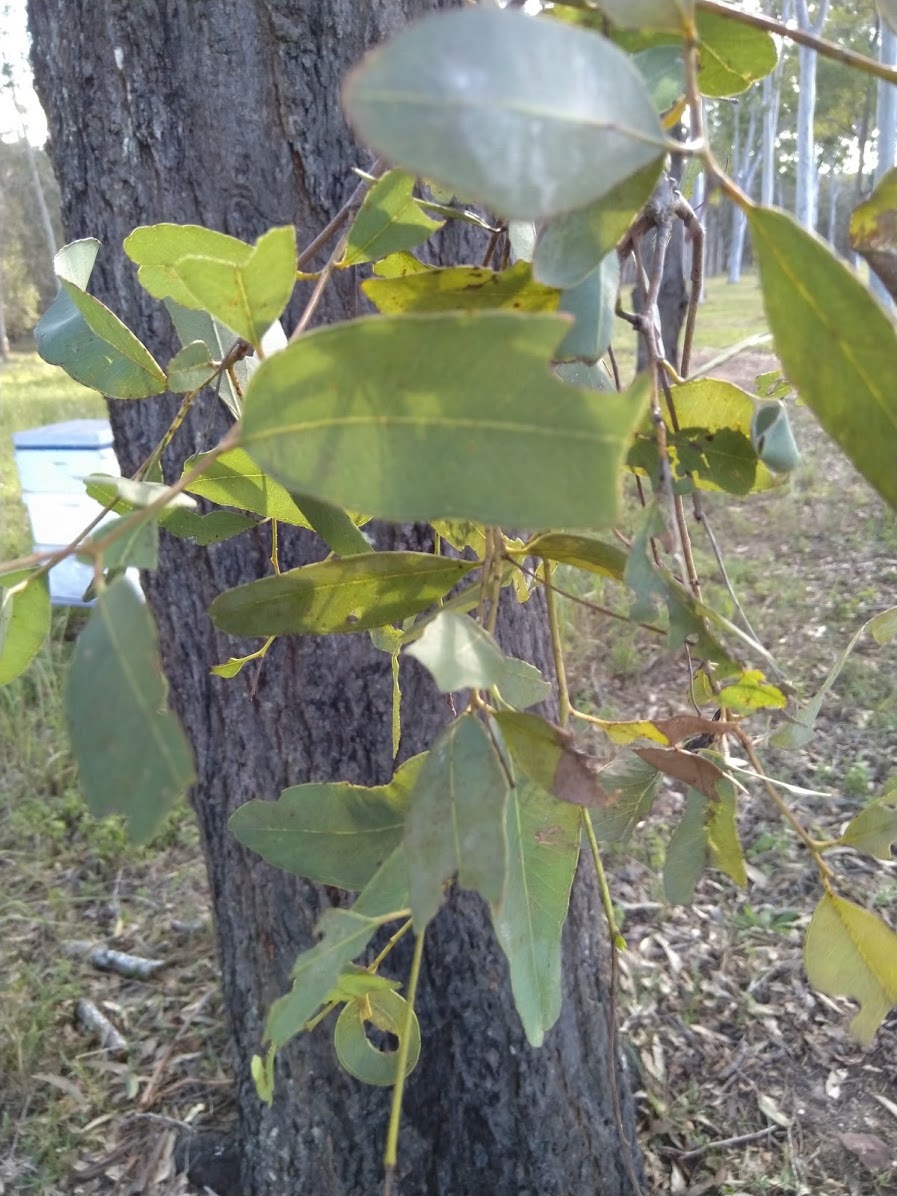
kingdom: Plantae
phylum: Tracheophyta
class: Magnoliopsida
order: Myrtales
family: Myrtaceae
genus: Eucalyptus
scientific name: Eucalyptus siderophloia
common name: Broad-leafed-ironbark
